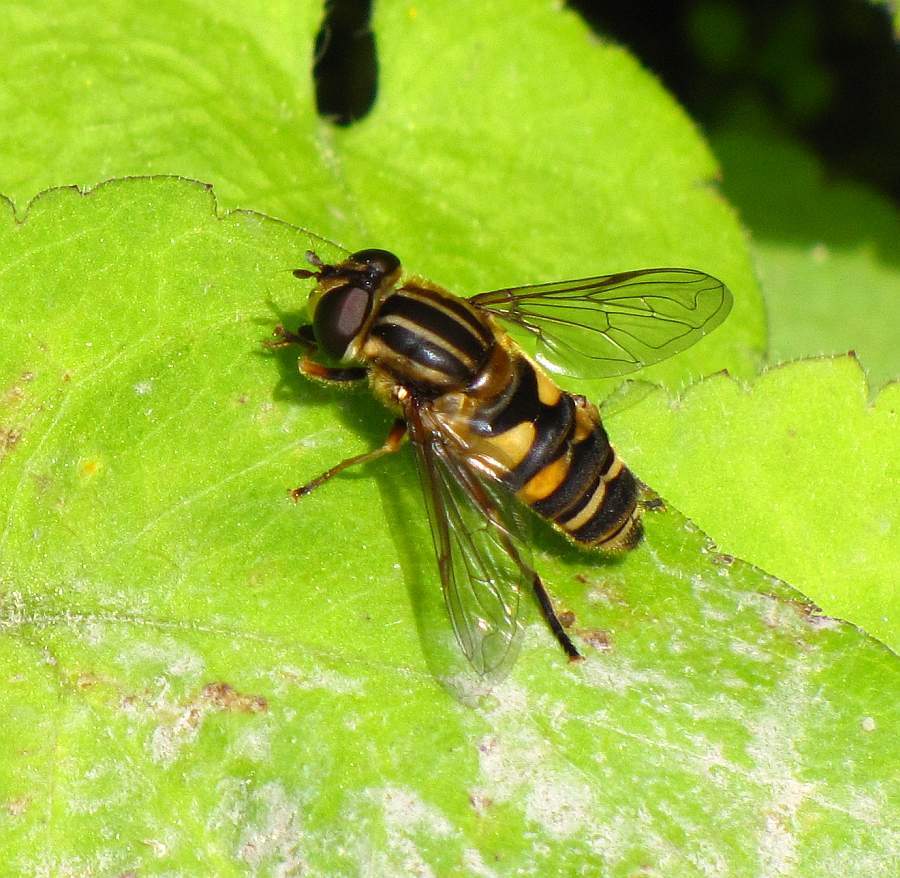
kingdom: Animalia
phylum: Arthropoda
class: Insecta
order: Diptera
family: Syrphidae
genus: Helophilus
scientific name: Helophilus fasciatus
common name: Narrow-headed marsh fly
